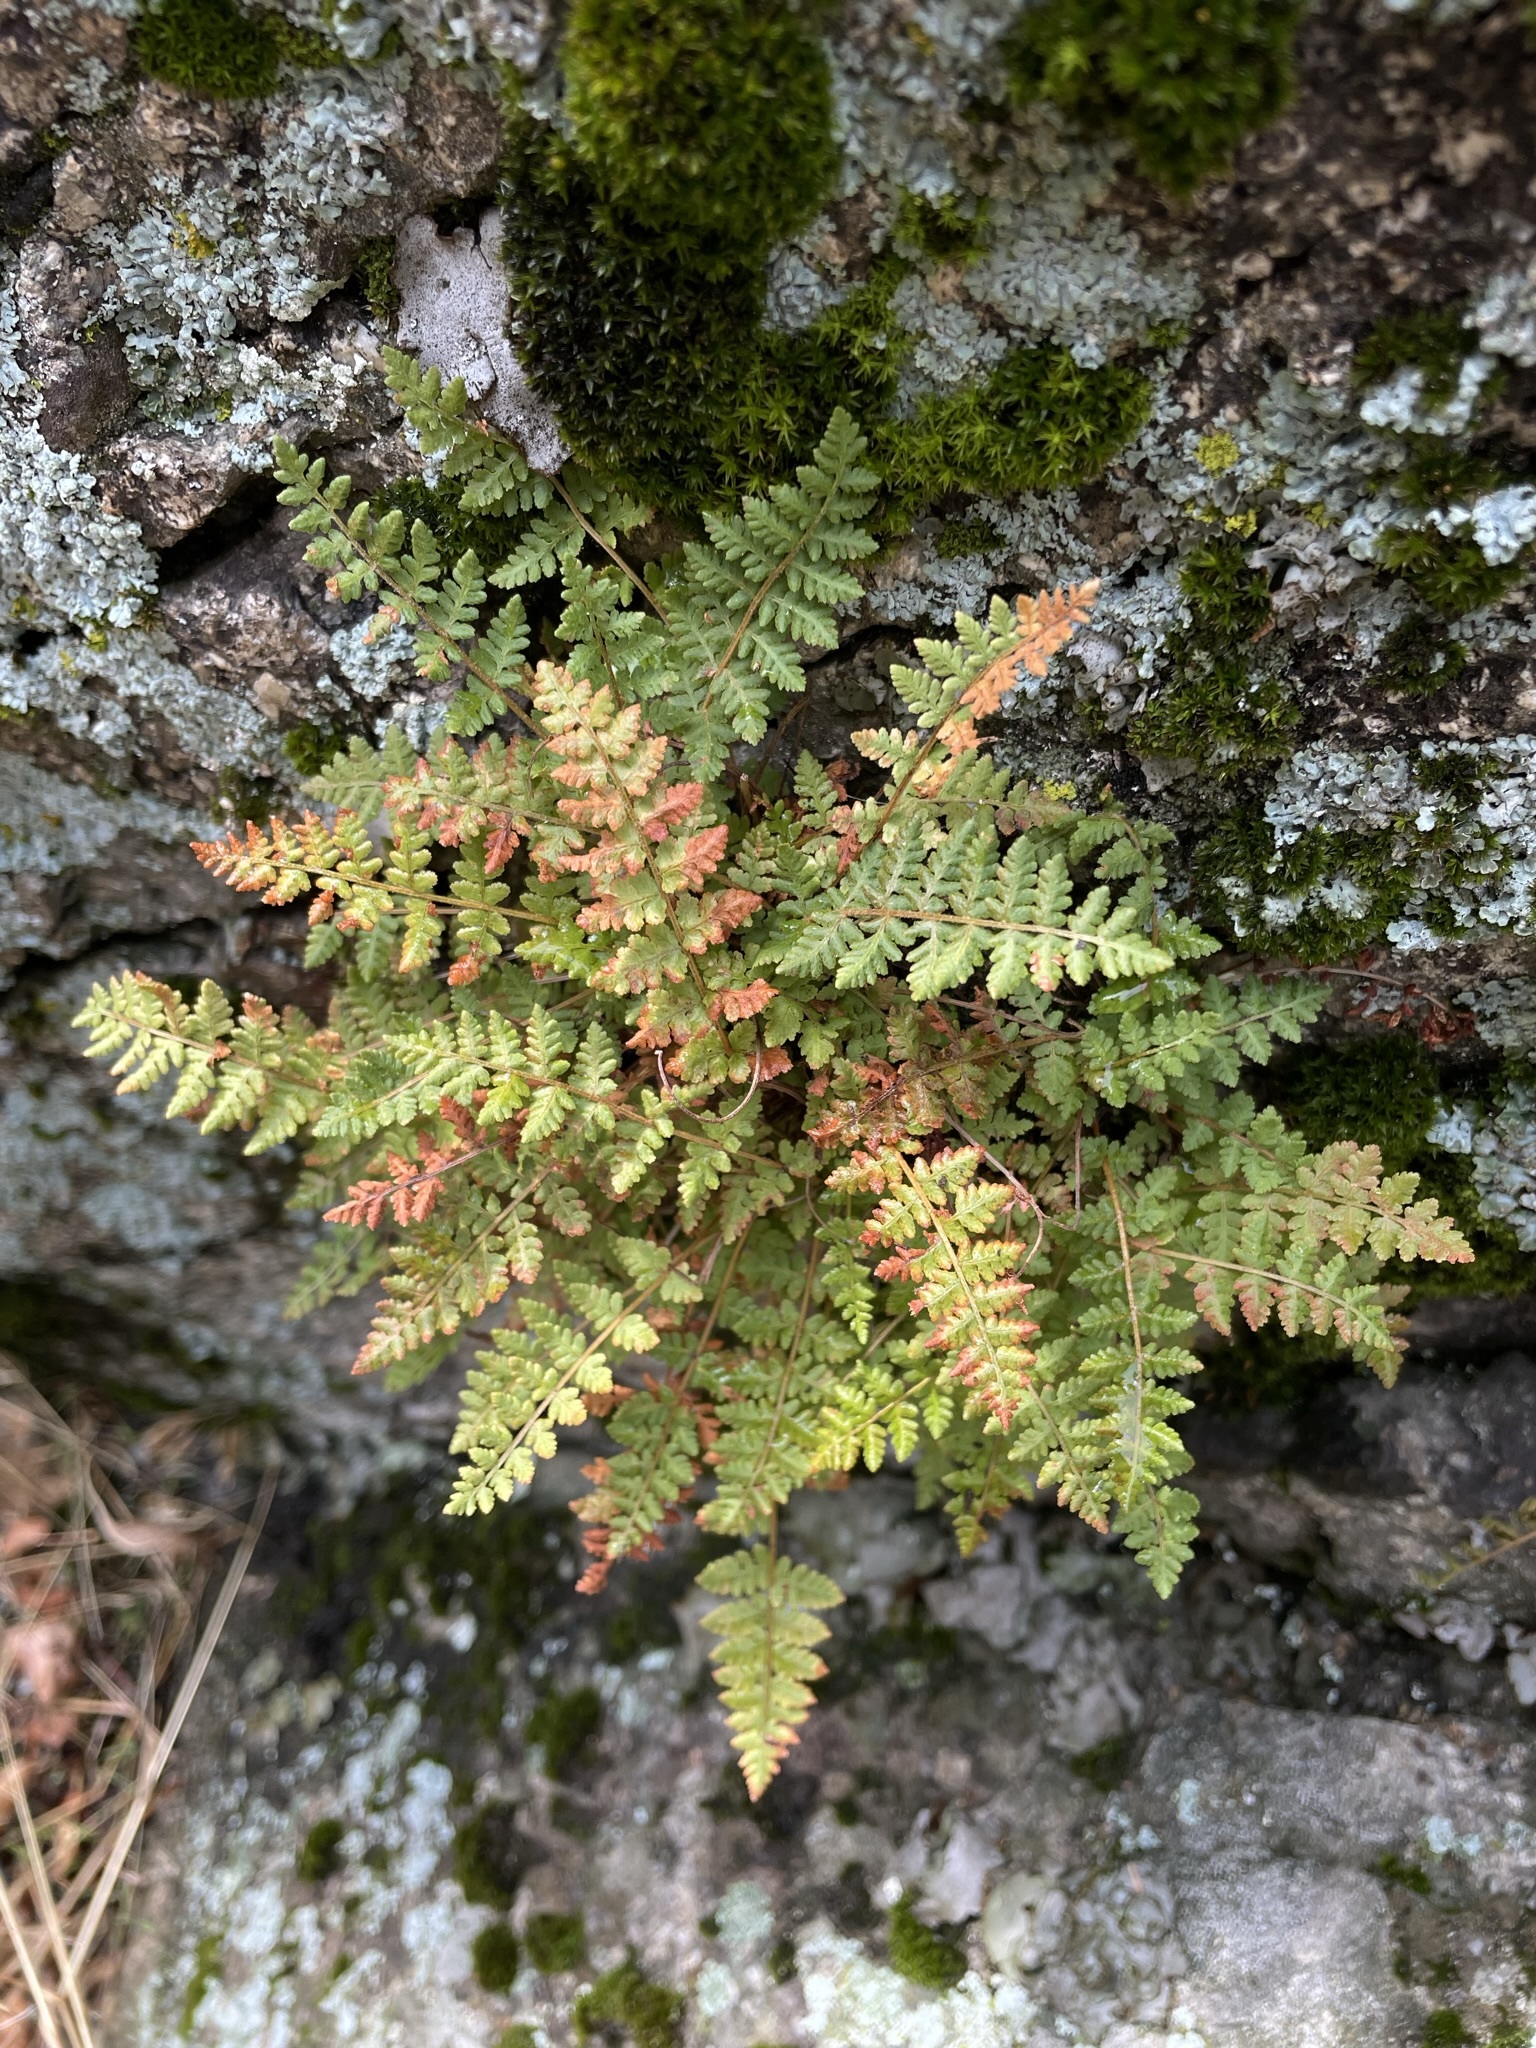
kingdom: Plantae
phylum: Tracheophyta
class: Polypodiopsida
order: Polypodiales
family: Woodsiaceae
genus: Physematium
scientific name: Physematium scopulinum
